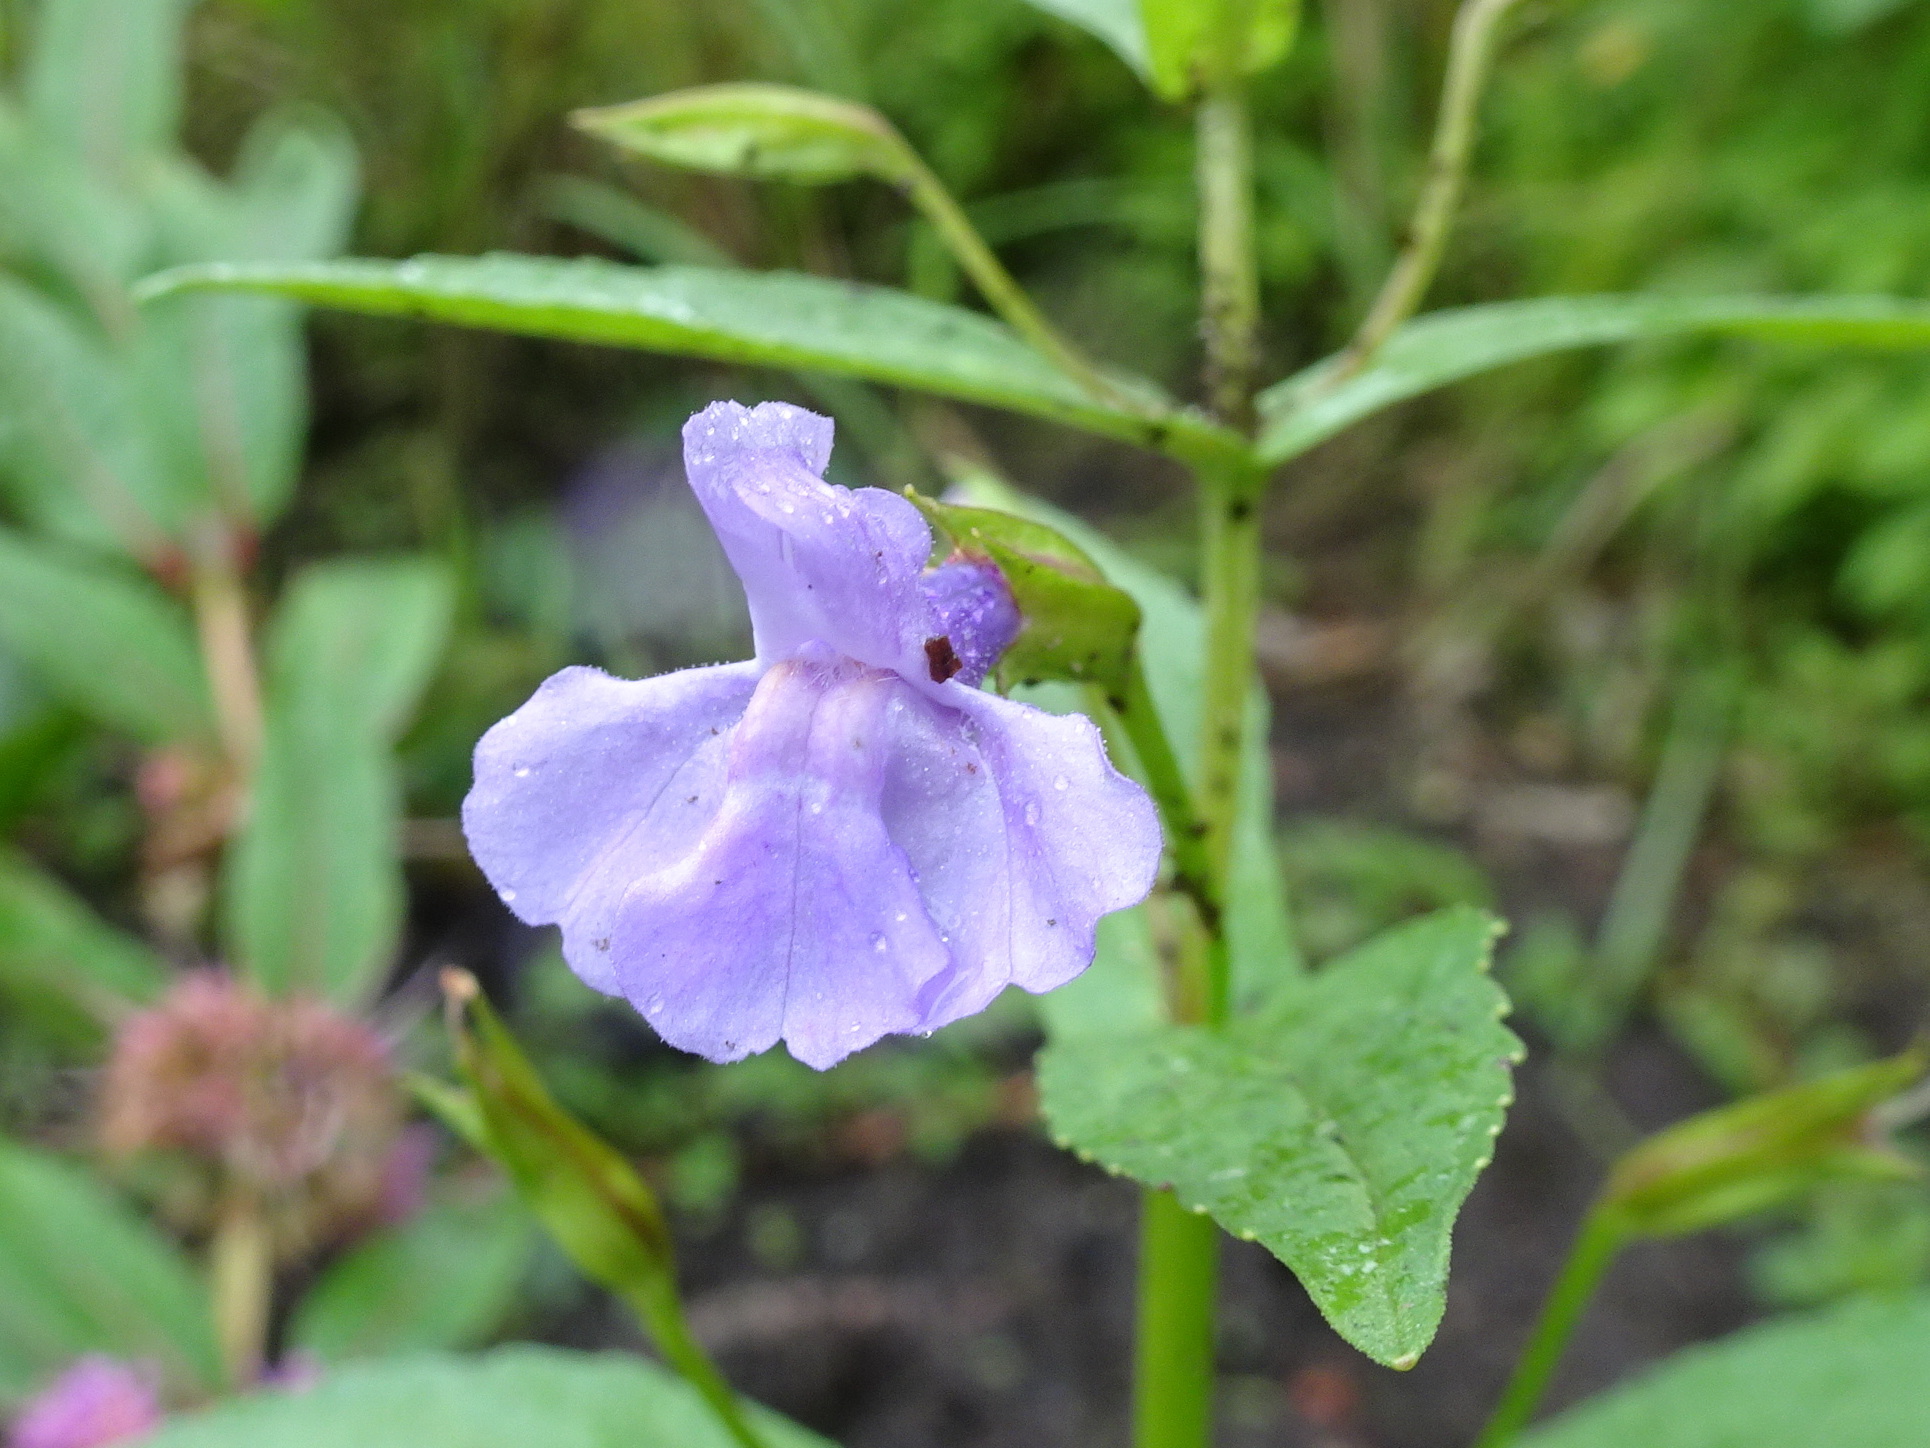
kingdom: Plantae
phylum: Tracheophyta
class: Magnoliopsida
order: Lamiales
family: Phrymaceae
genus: Mimulus
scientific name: Mimulus ringens
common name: Allegheny monkeyflower
